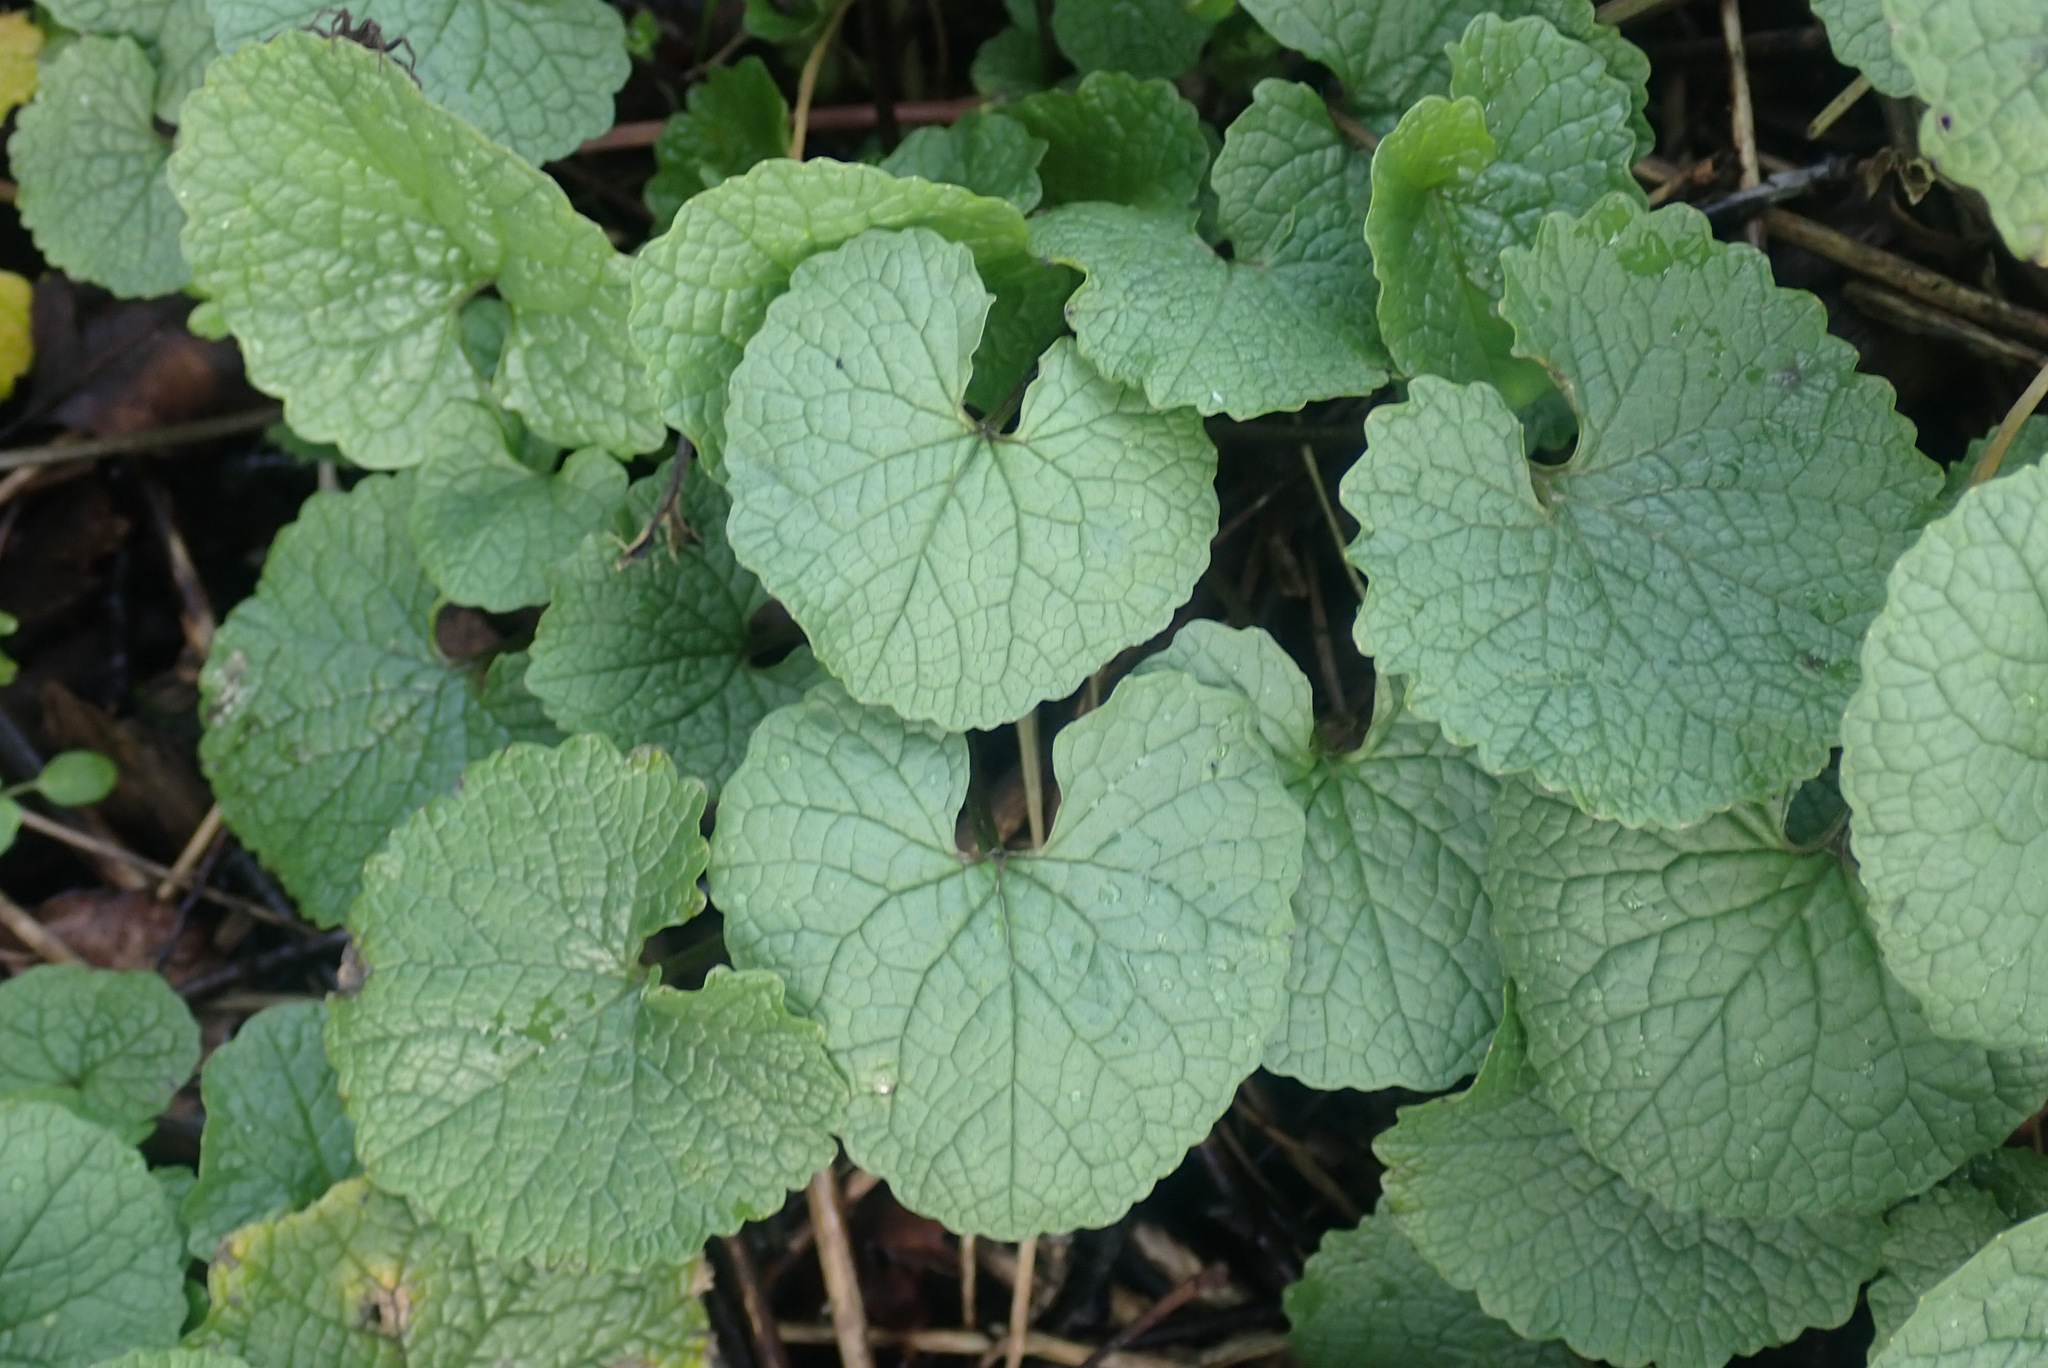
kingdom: Plantae
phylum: Tracheophyta
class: Magnoliopsida
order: Brassicales
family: Brassicaceae
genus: Alliaria
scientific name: Alliaria petiolata
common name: Garlic mustard
